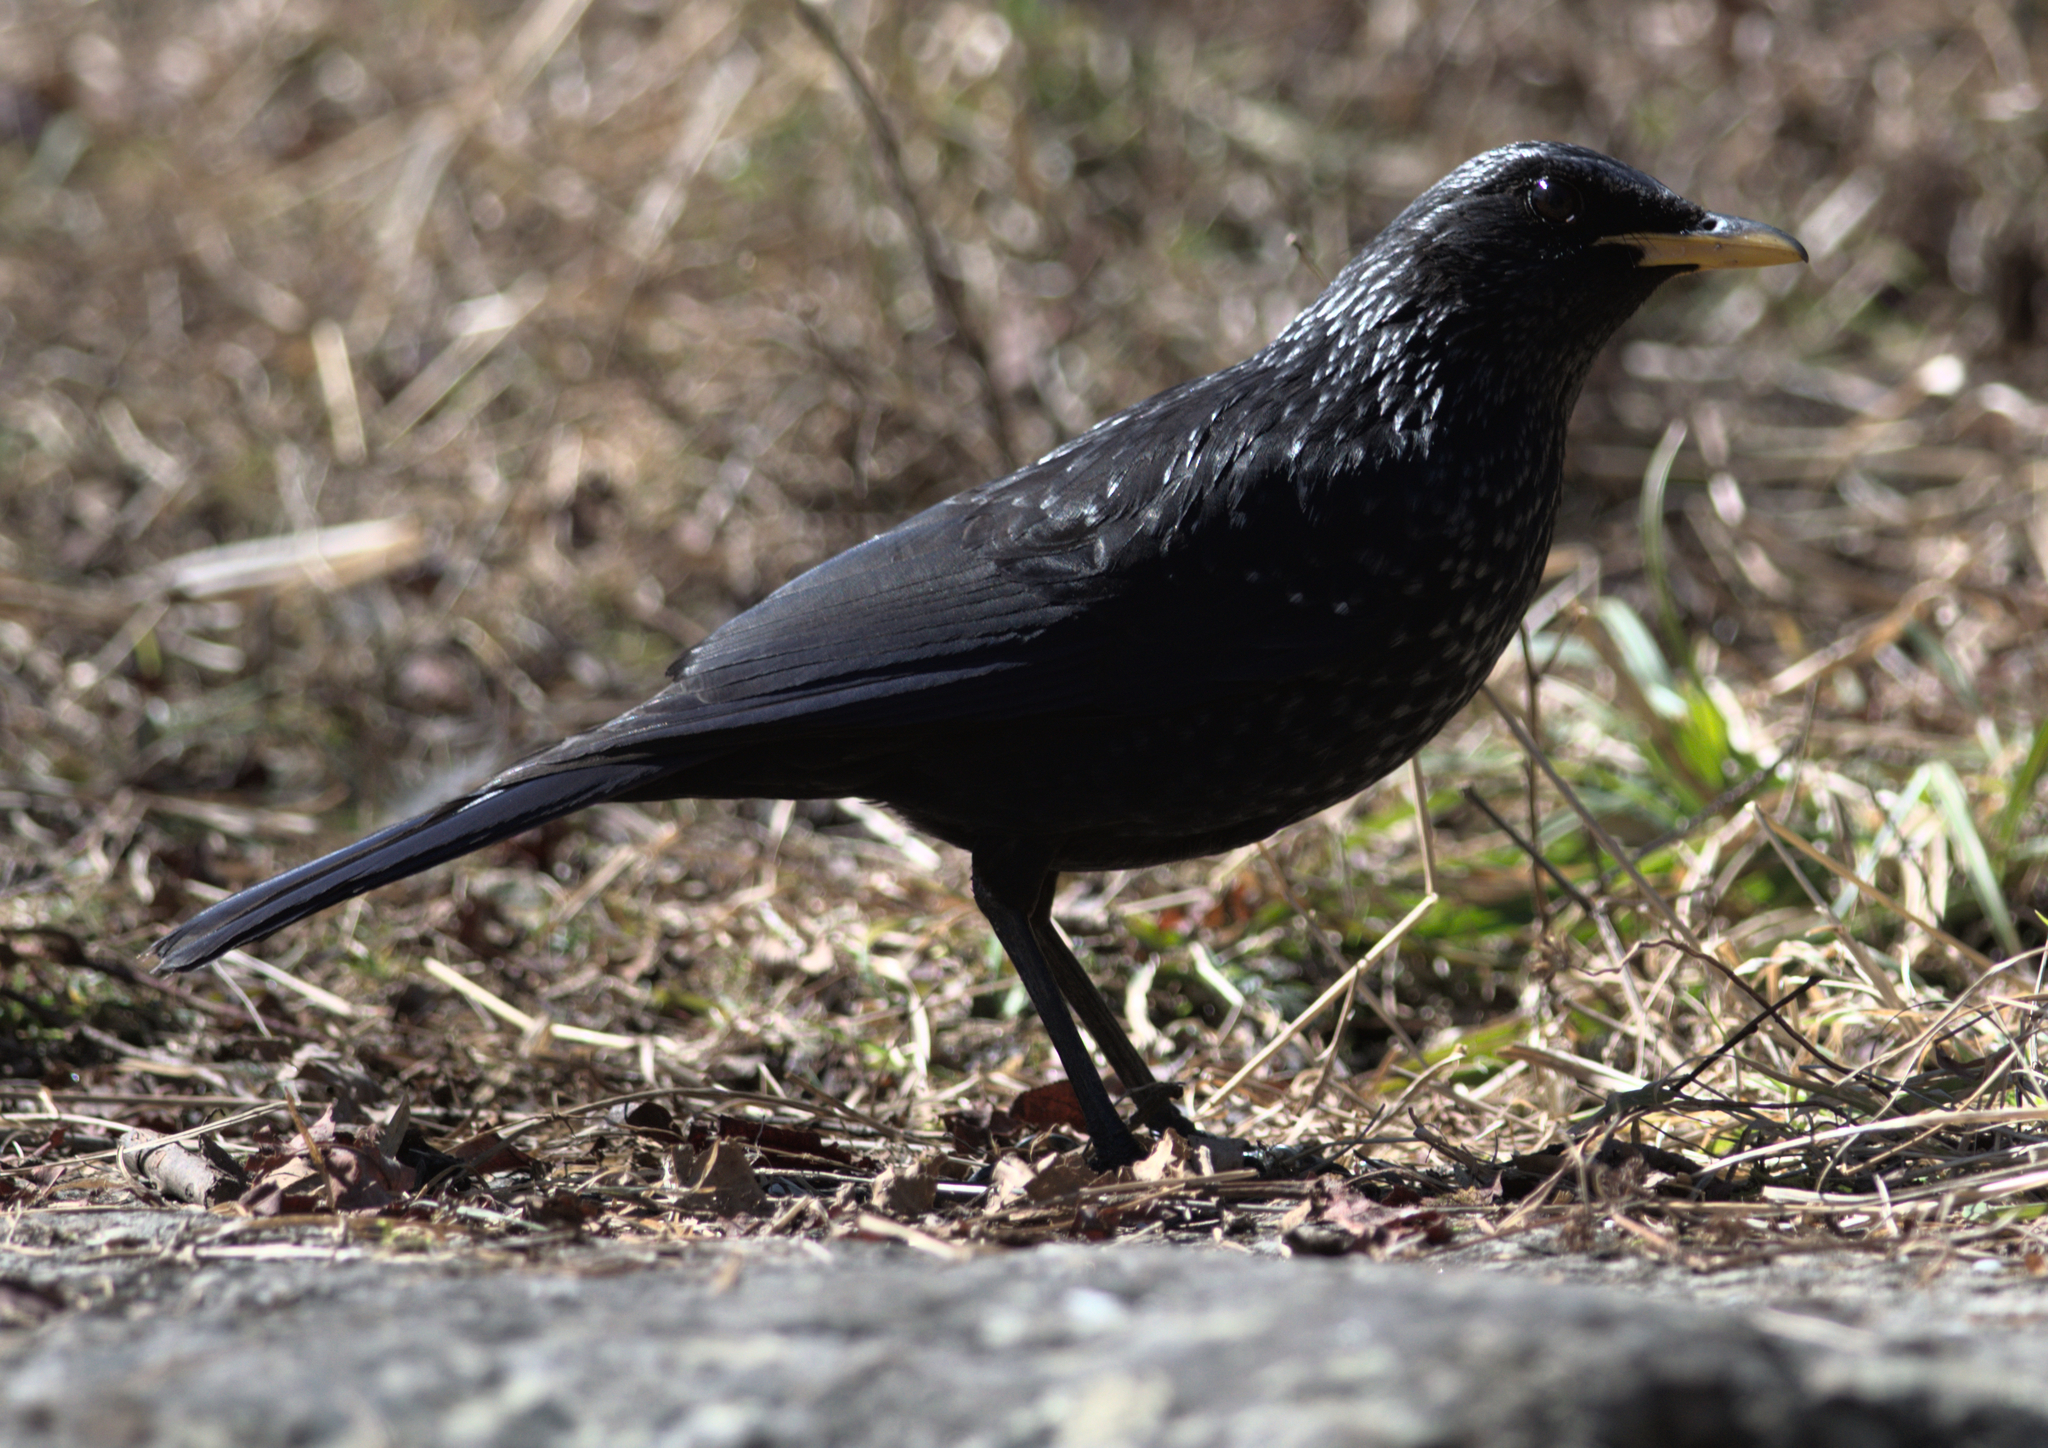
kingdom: Animalia
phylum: Chordata
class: Aves
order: Passeriformes
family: Muscicapidae
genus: Myophonus
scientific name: Myophonus caeruleus
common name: Blue whistling-thrush
